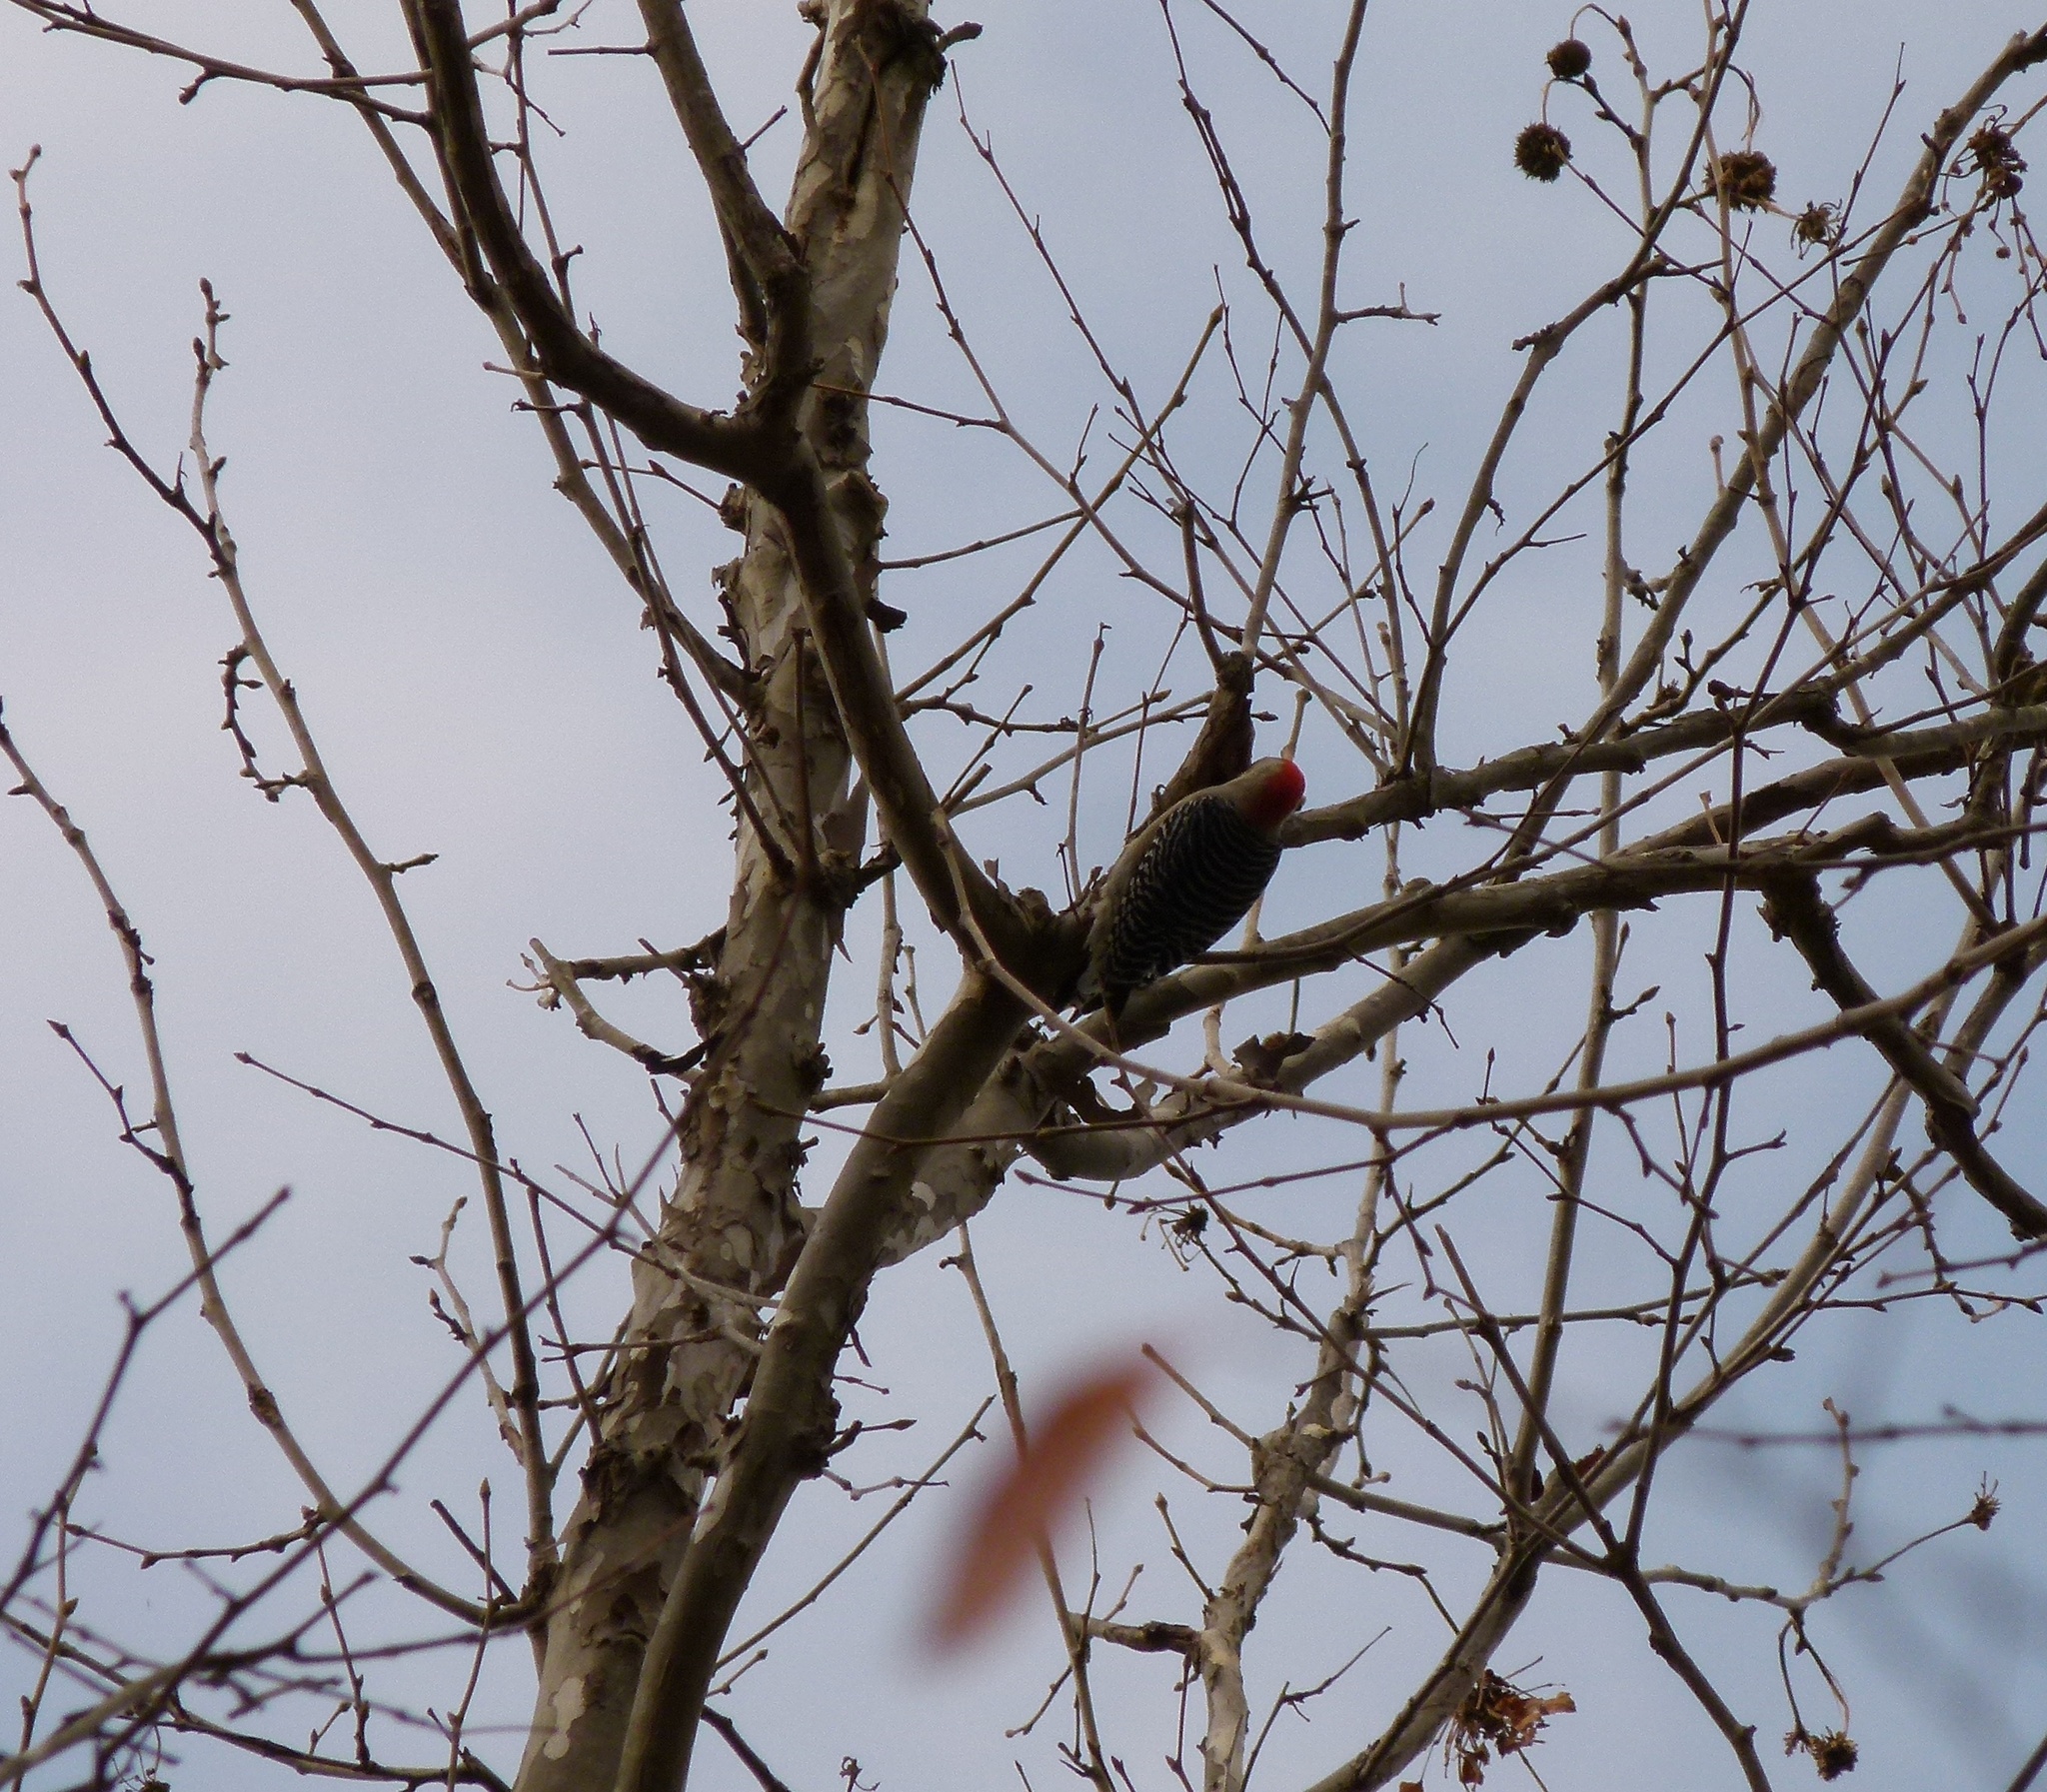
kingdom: Animalia
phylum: Chordata
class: Aves
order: Piciformes
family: Picidae
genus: Melanerpes
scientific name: Melanerpes carolinus
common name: Red-bellied woodpecker
